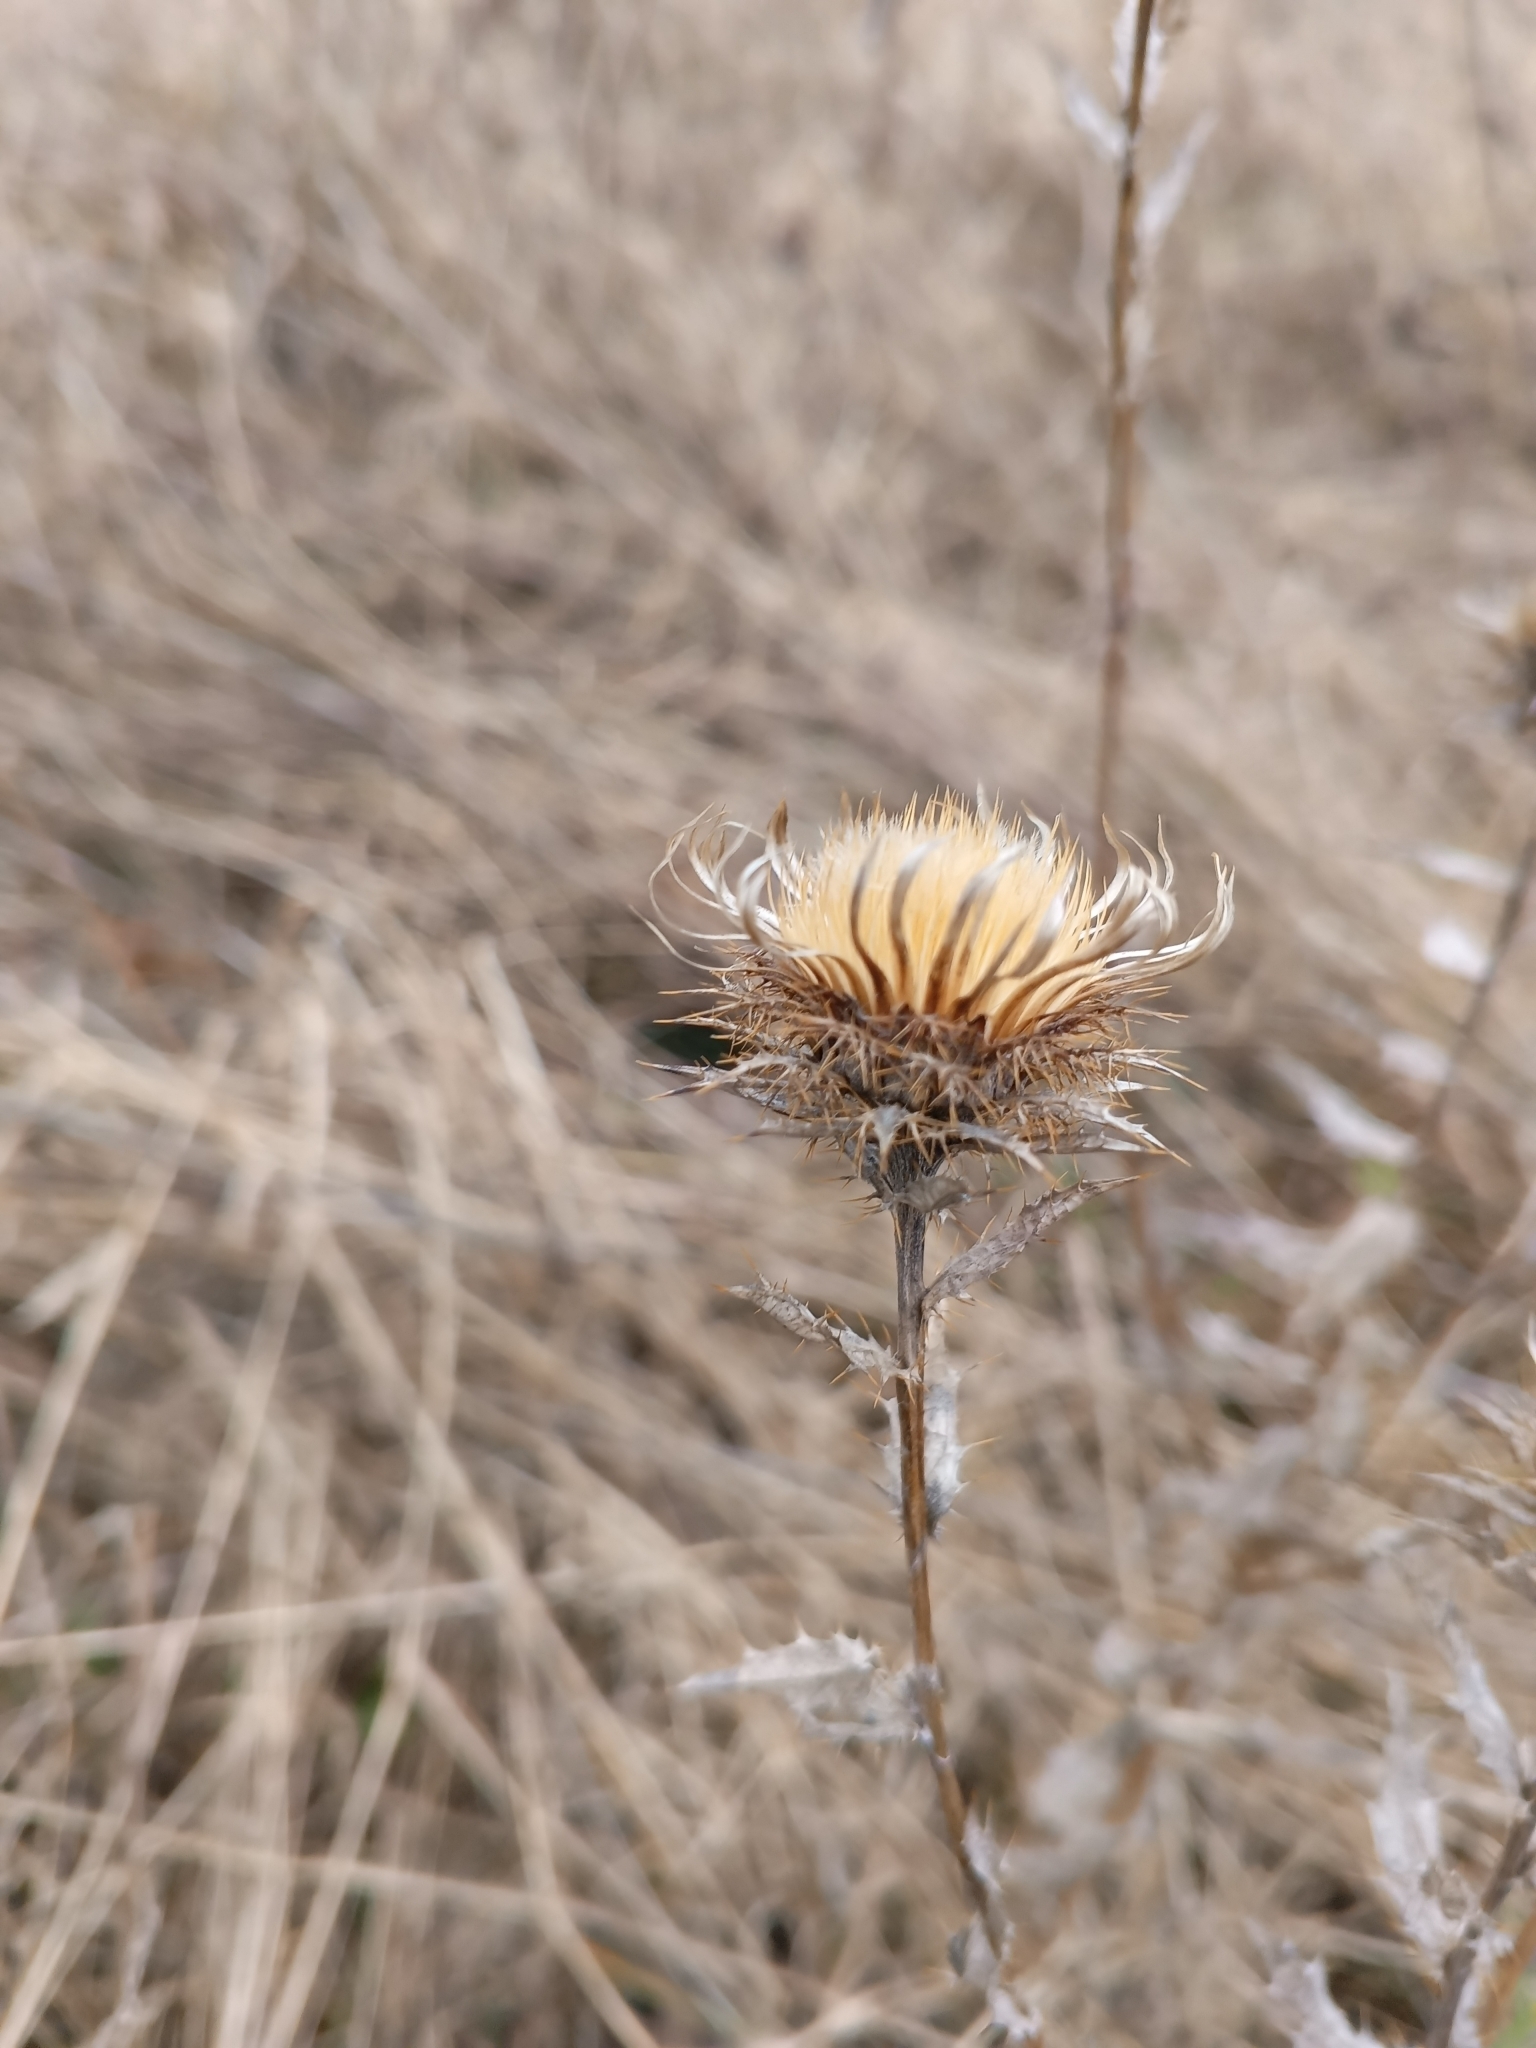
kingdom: Plantae
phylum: Tracheophyta
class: Magnoliopsida
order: Asterales
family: Asteraceae
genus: Carlina
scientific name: Carlina biebersteinii
